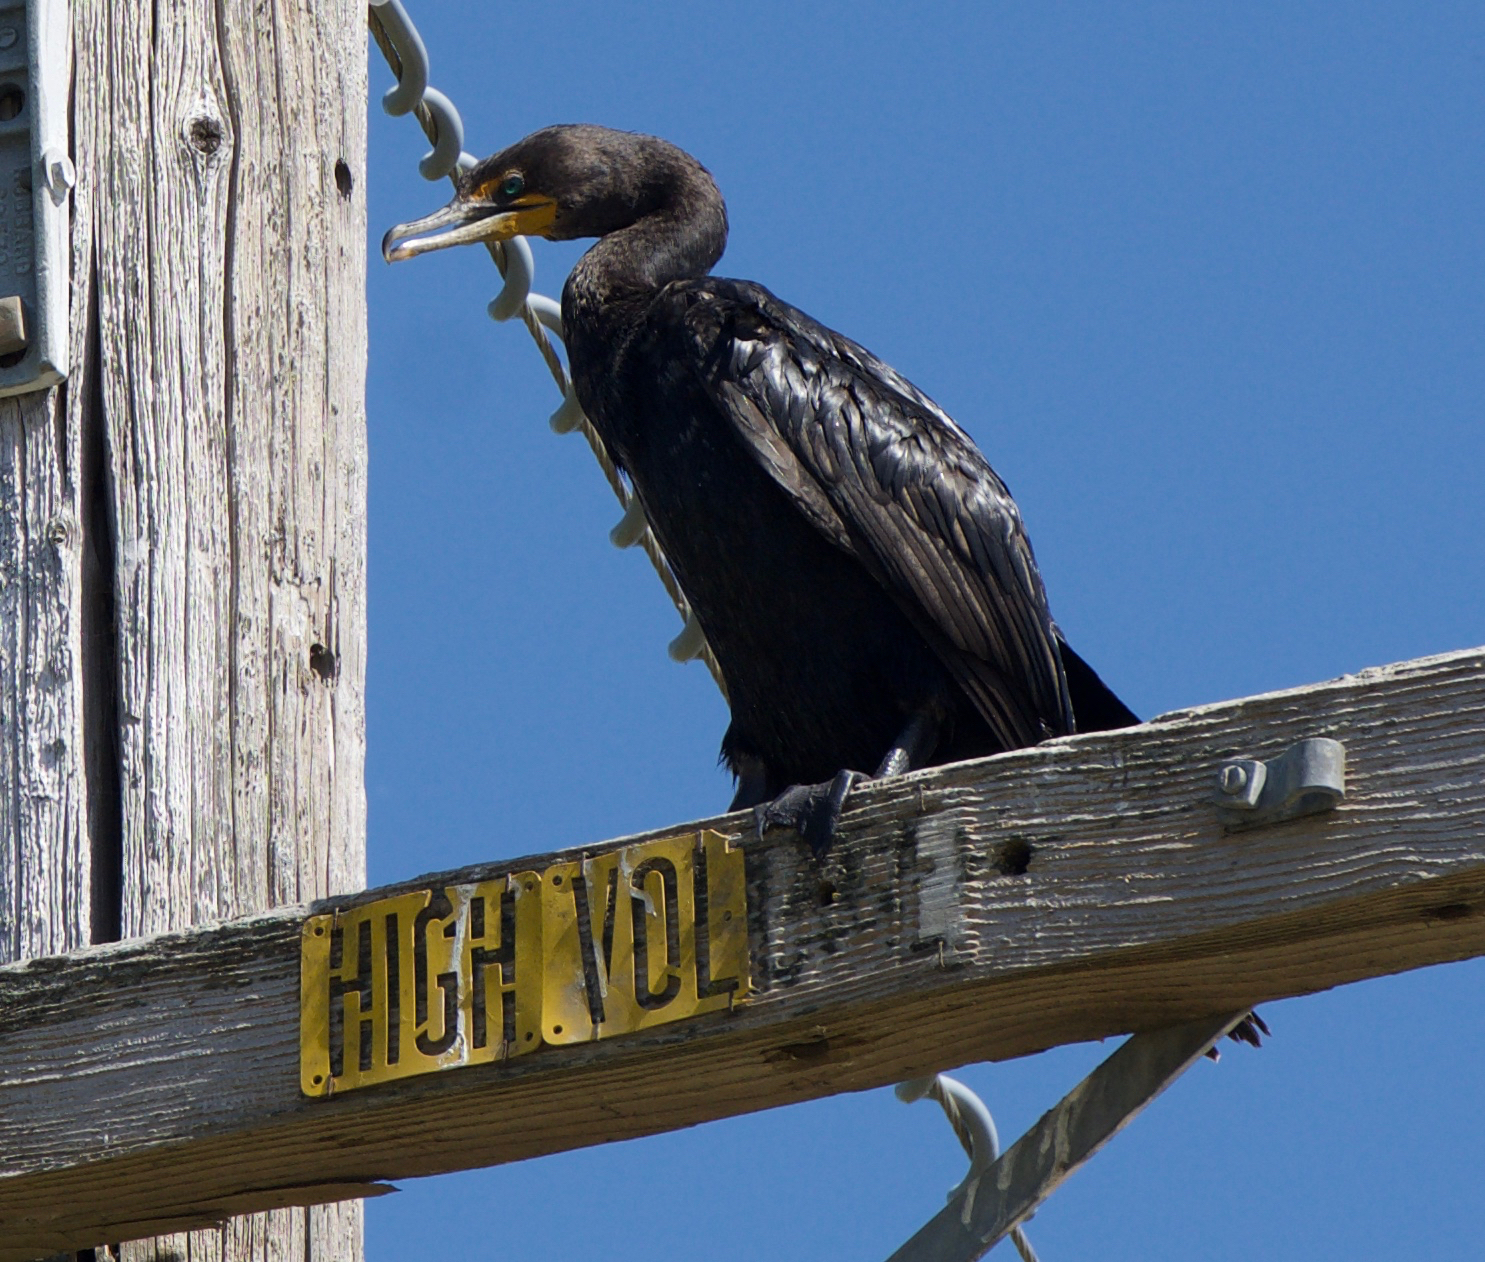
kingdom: Animalia
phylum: Chordata
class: Aves
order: Suliformes
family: Phalacrocoracidae
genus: Phalacrocorax
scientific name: Phalacrocorax auritus
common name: Double-crested cormorant
